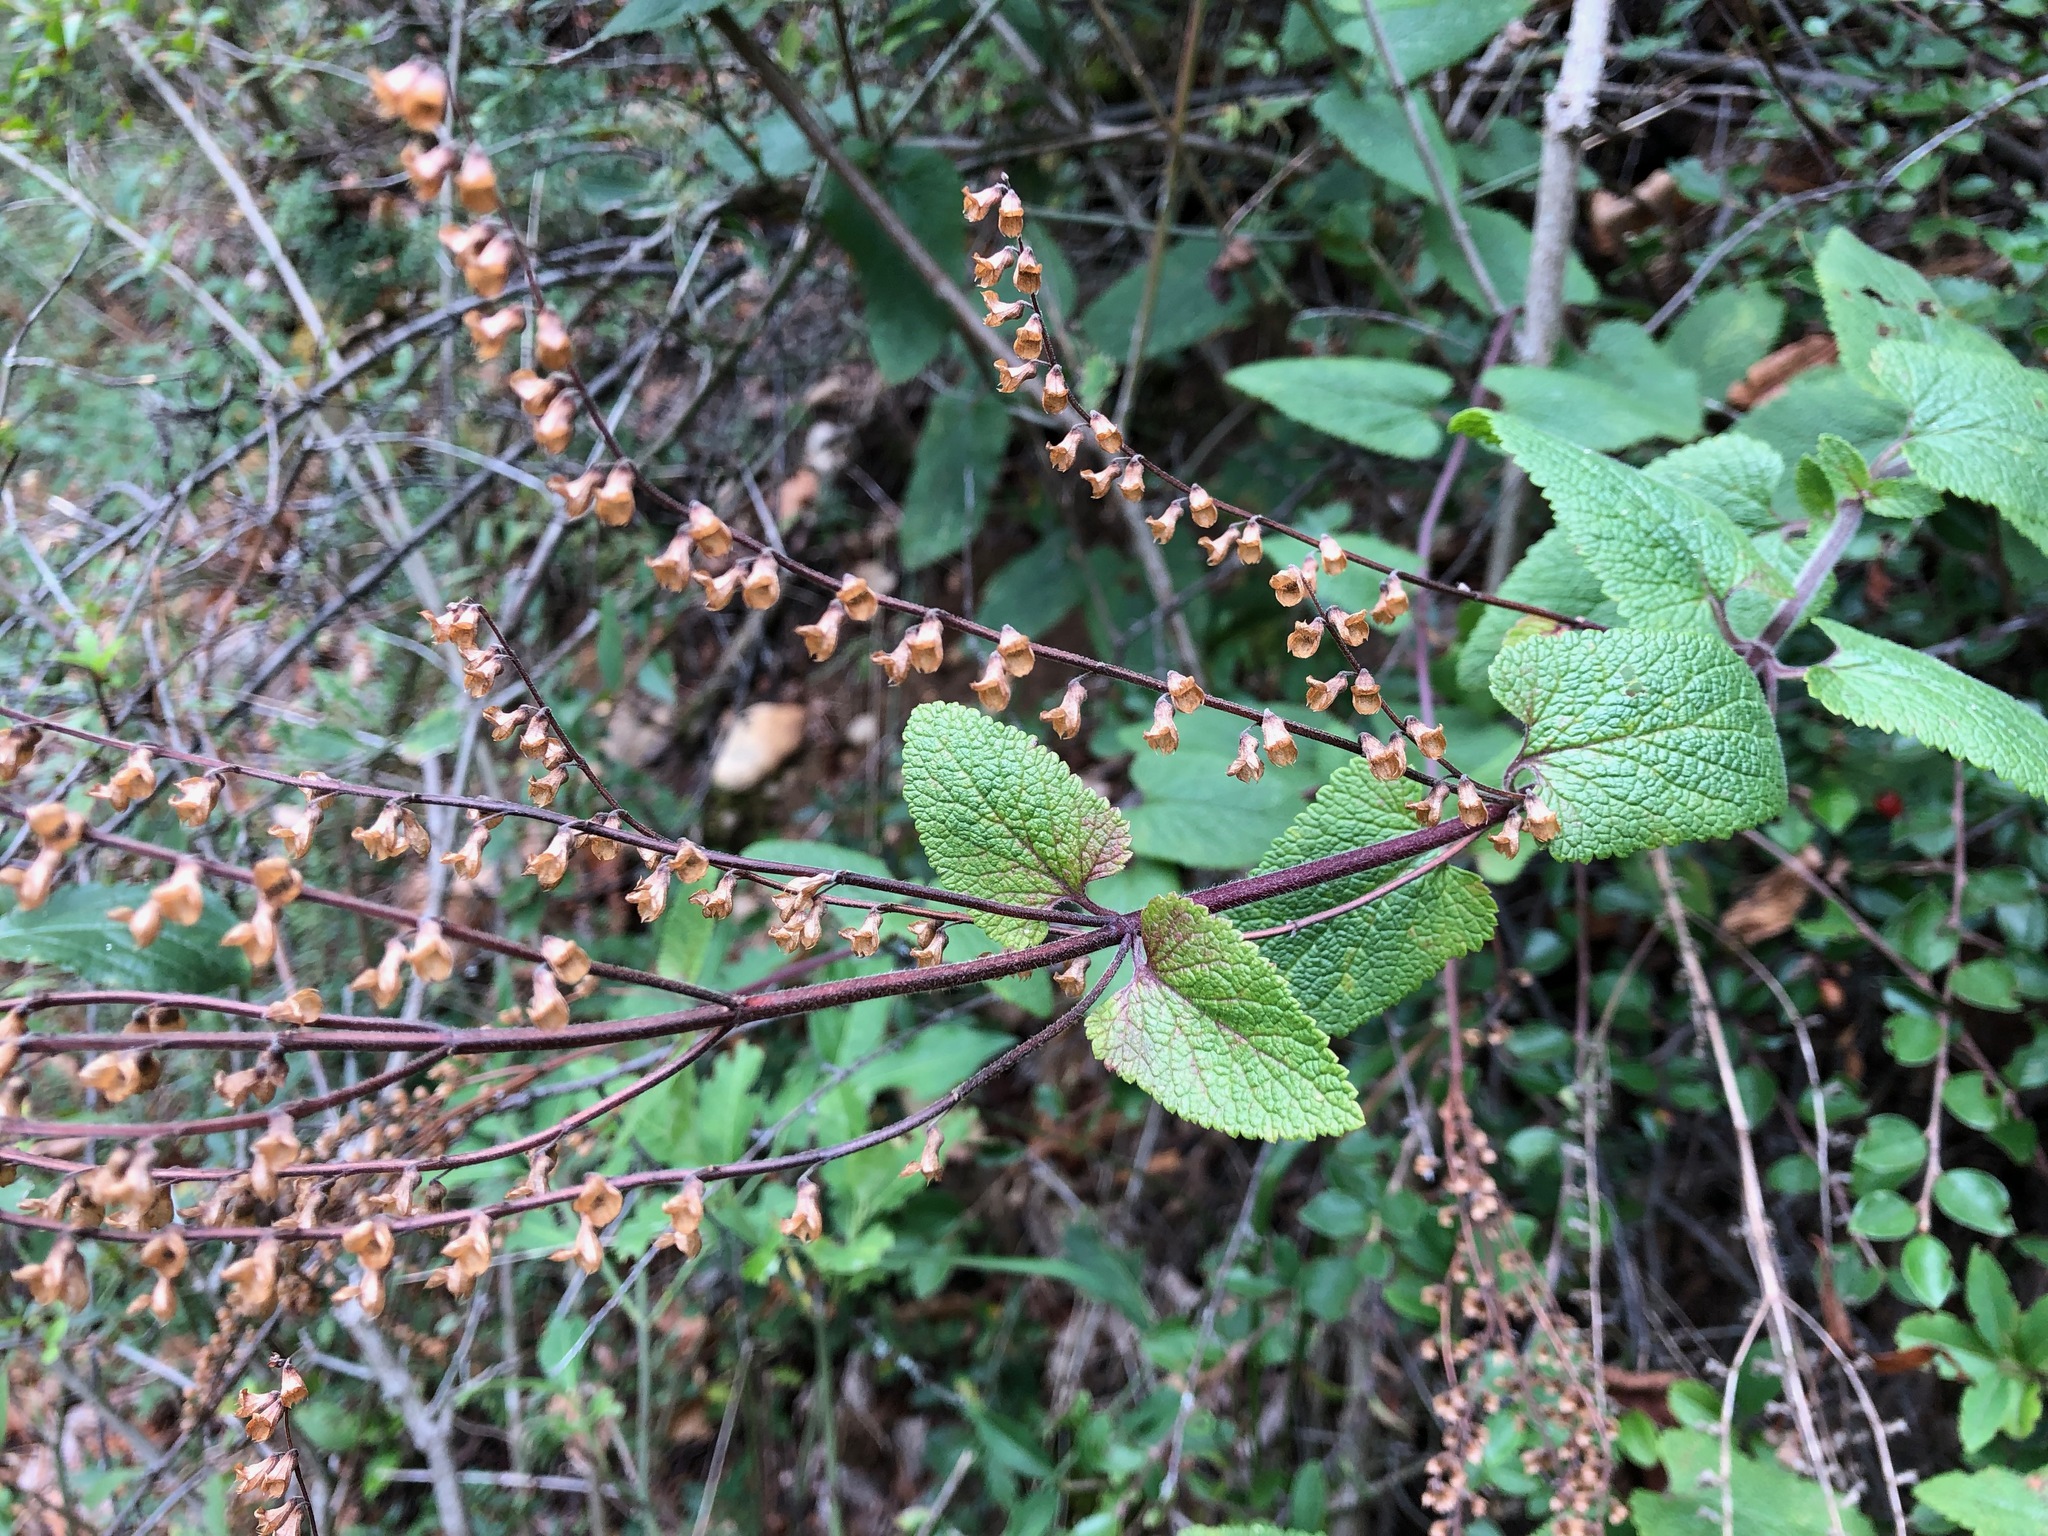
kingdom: Plantae
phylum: Tracheophyta
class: Magnoliopsida
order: Lamiales
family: Lamiaceae
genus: Teucrium
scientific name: Teucrium scorodonia
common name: Woodland germander
